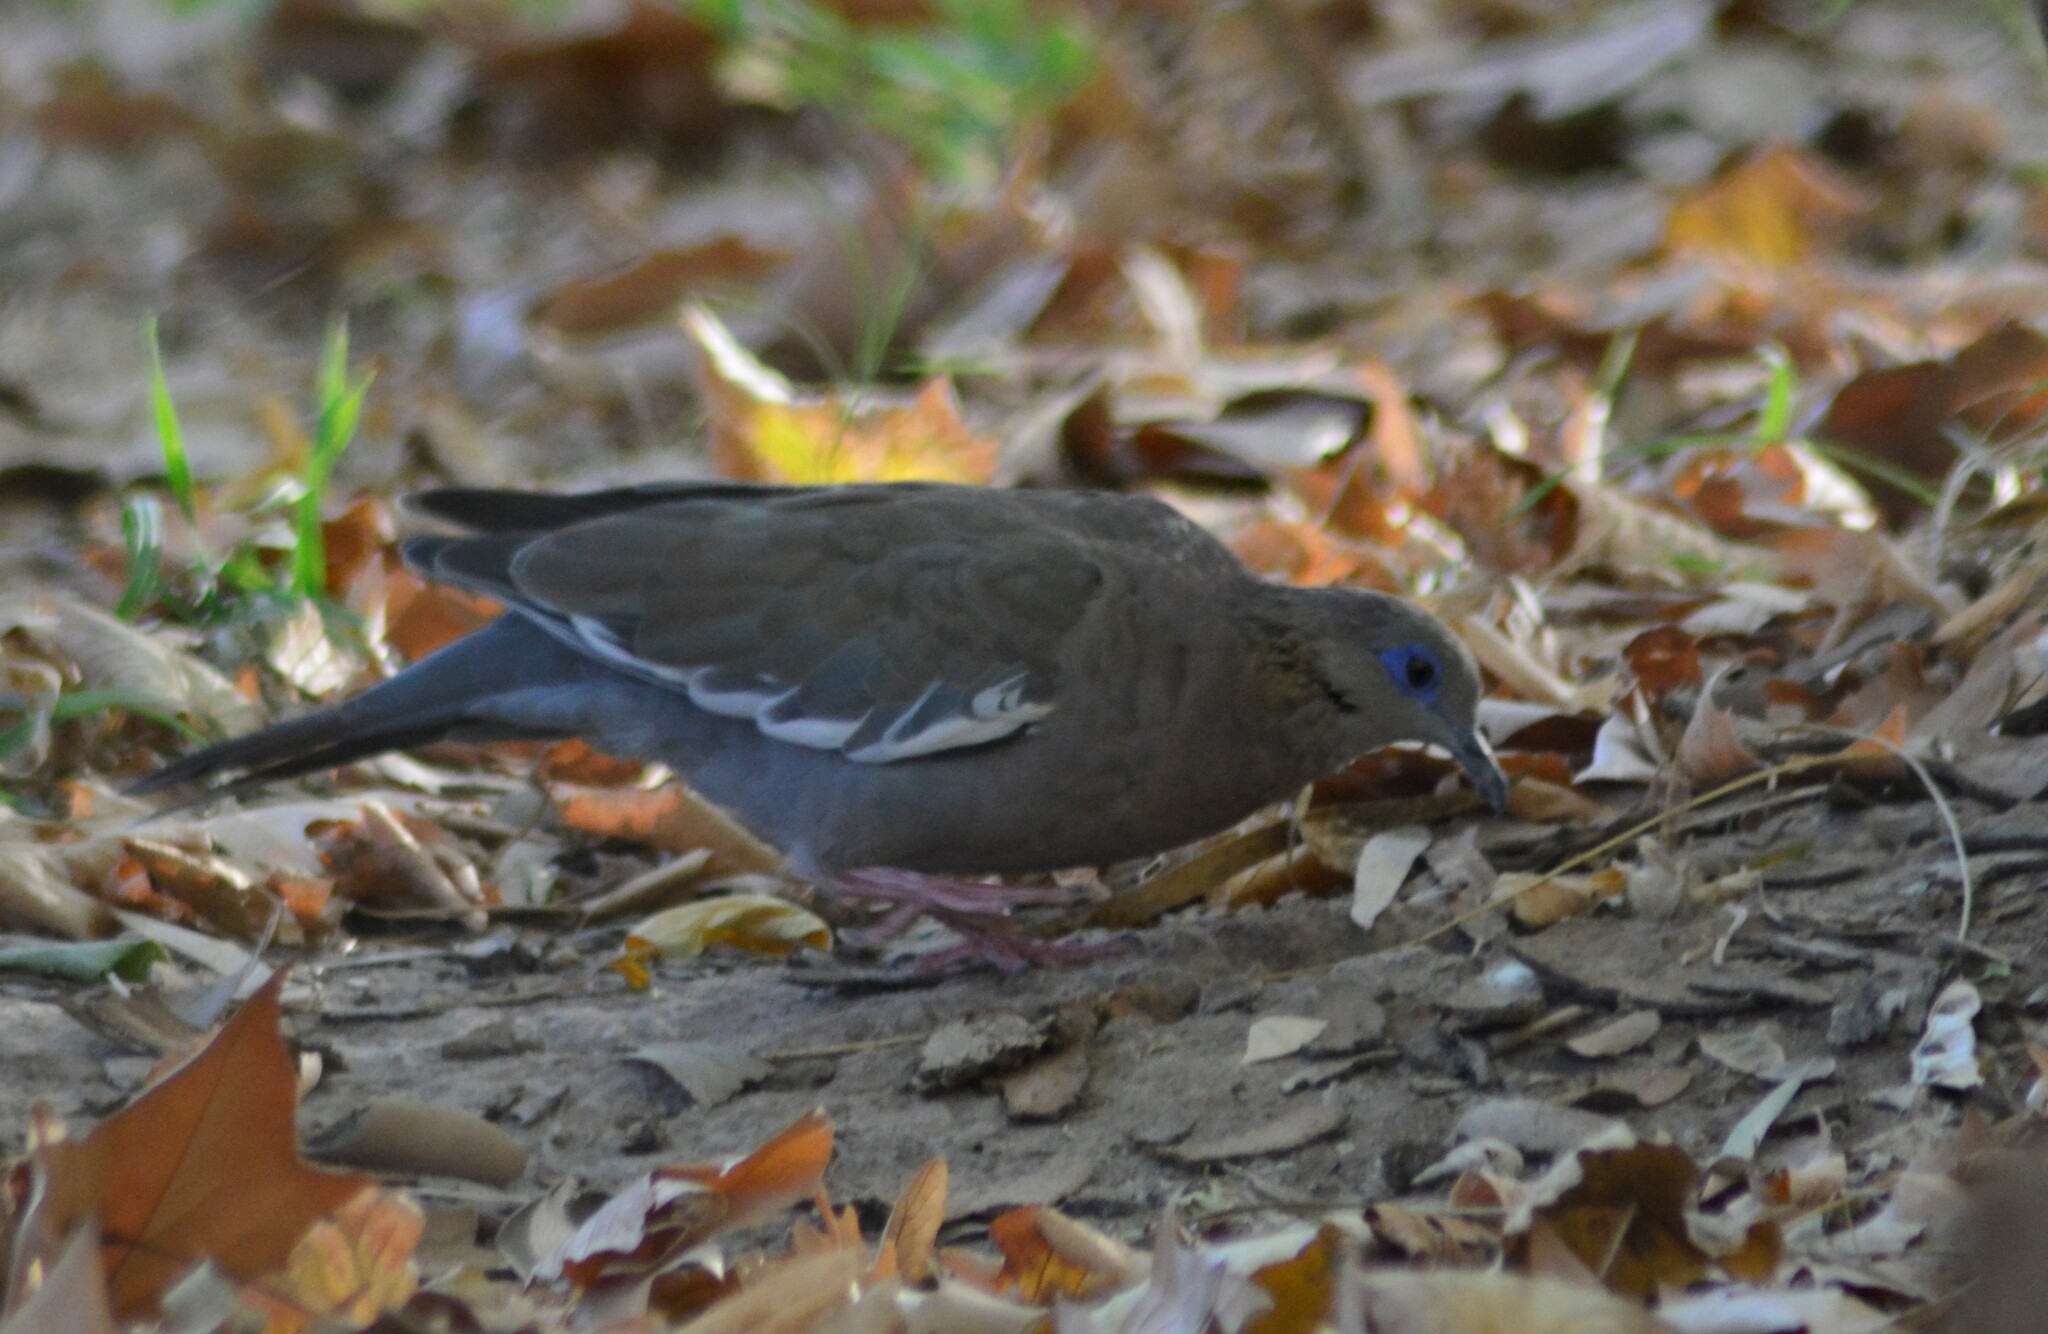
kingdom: Animalia
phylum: Chordata
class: Aves
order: Columbiformes
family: Columbidae
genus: Zenaida
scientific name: Zenaida meloda
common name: West peruvian dove
